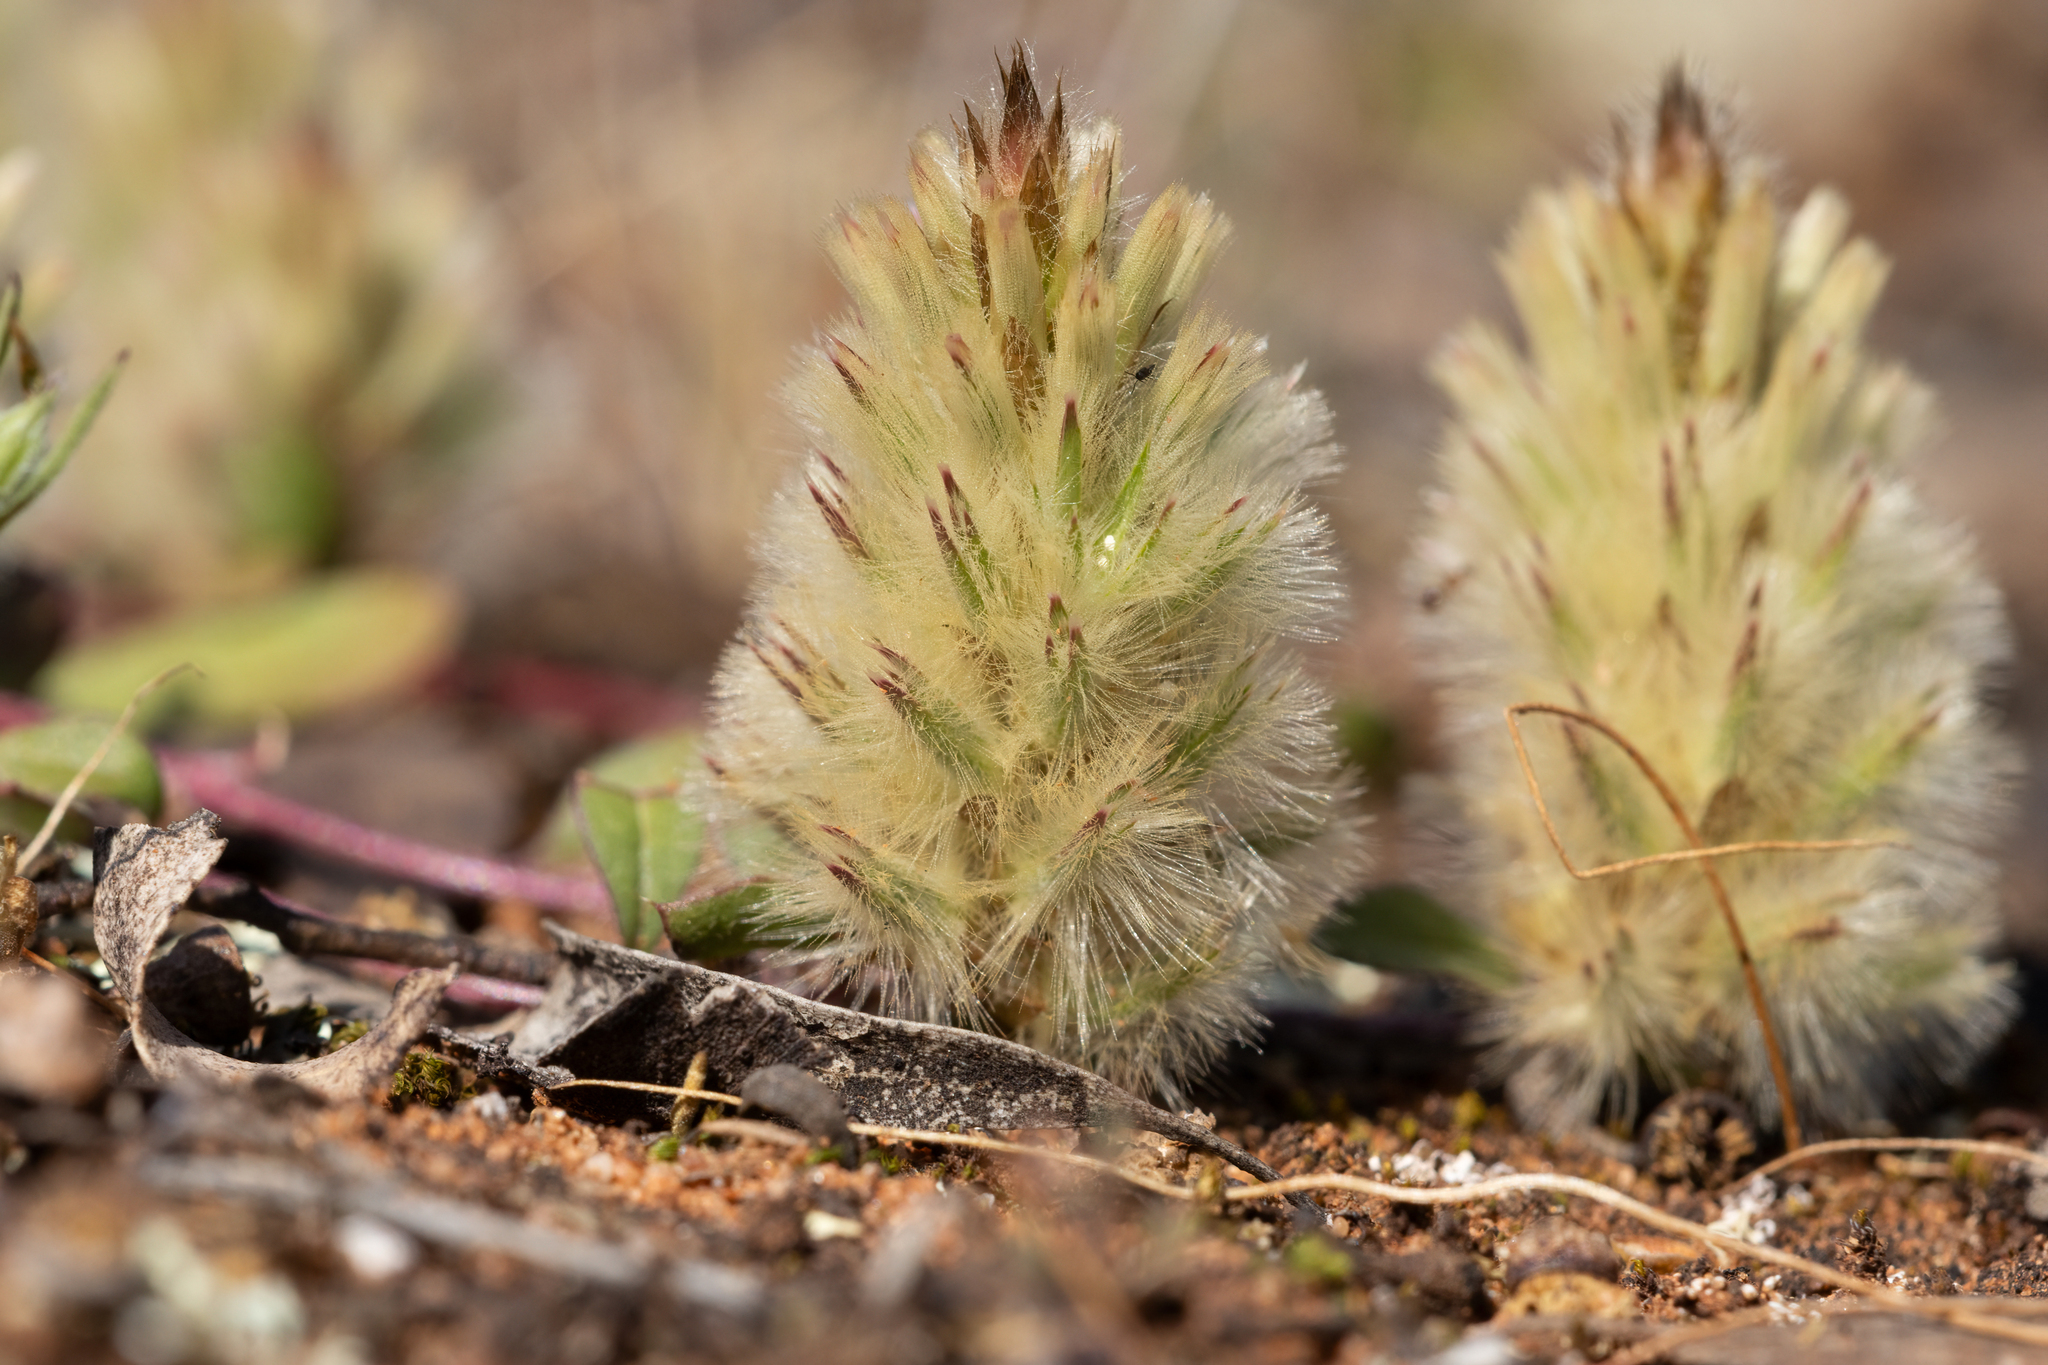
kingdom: Plantae
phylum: Tracheophyta
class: Magnoliopsida
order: Caryophyllales
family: Amaranthaceae
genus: Ptilotus
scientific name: Ptilotus spathulatus
